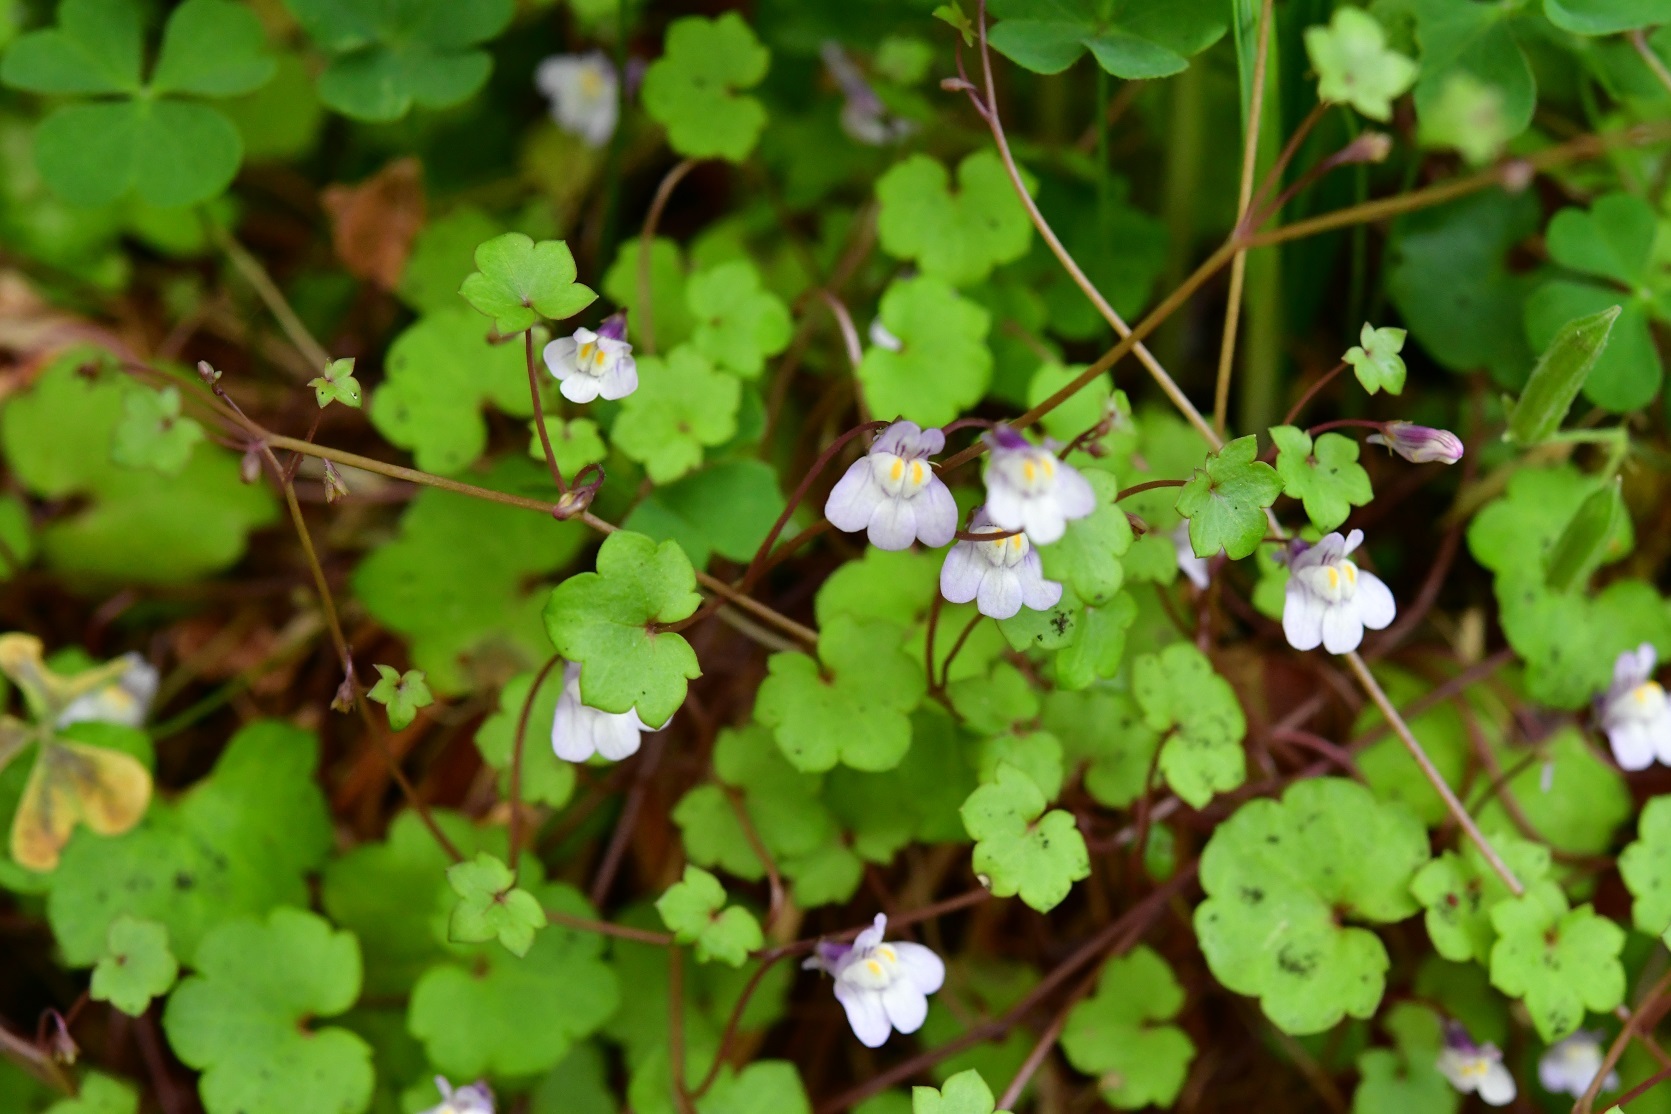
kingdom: Plantae
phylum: Tracheophyta
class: Magnoliopsida
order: Lamiales
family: Plantaginaceae
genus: Cymbalaria
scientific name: Cymbalaria muralis
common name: Ivy-leaved toadflax
